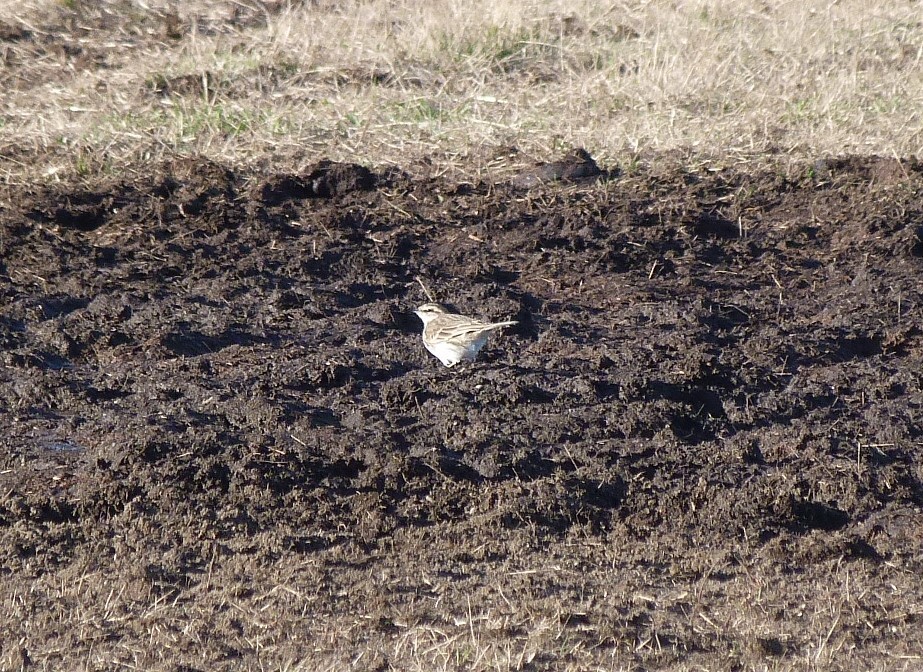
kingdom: Animalia
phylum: Chordata
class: Aves
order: Passeriformes
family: Motacillidae
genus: Anthus
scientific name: Anthus novaeseelandiae
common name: New zealand pipit
